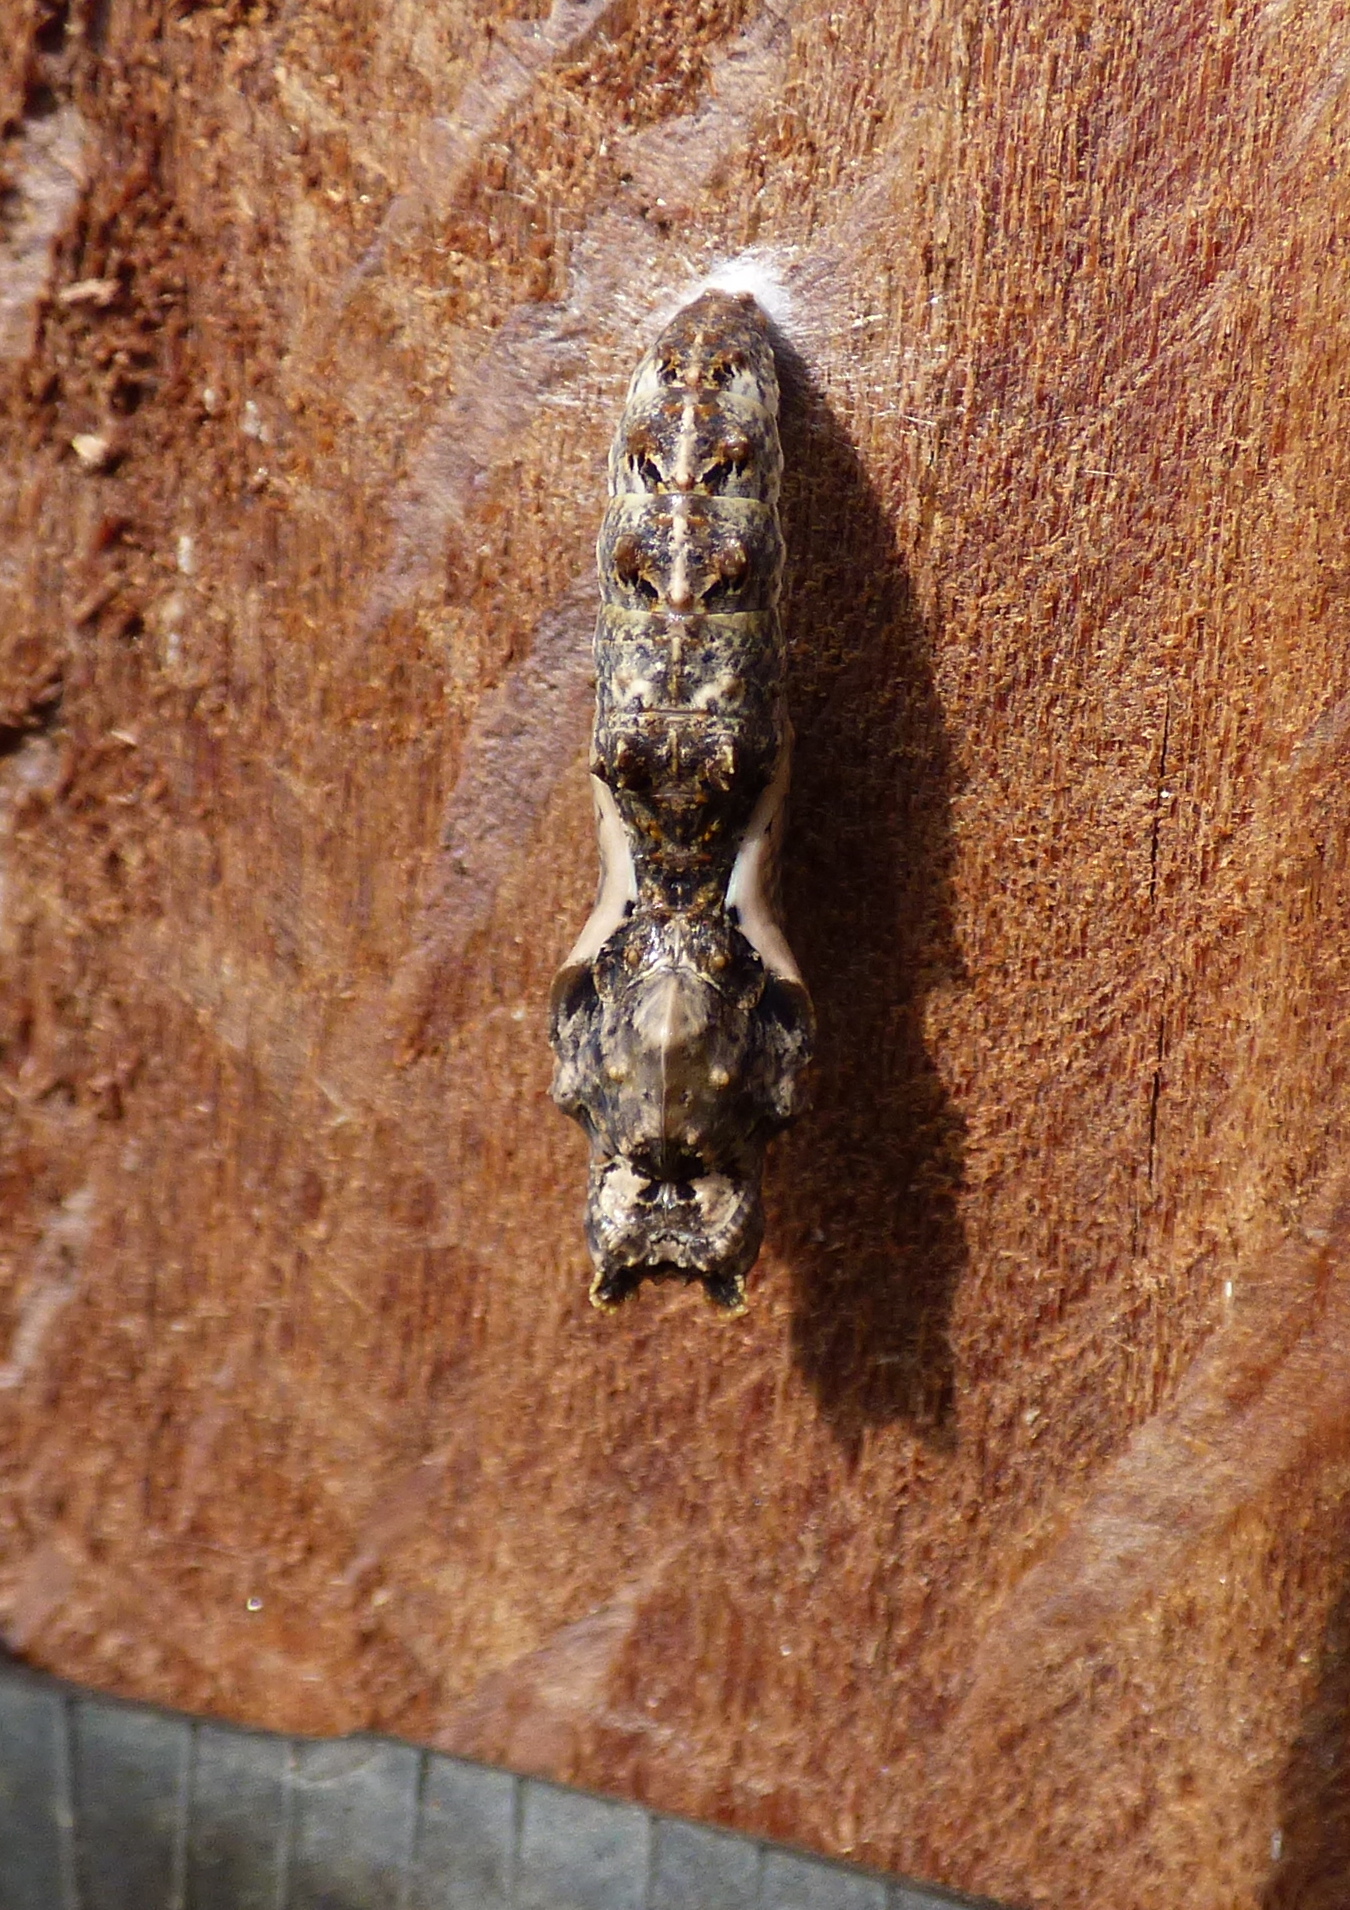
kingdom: Animalia
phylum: Arthropoda
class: Insecta
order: Lepidoptera
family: Nymphalidae
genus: Dione
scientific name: Dione vanillae
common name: Gulf fritillary
